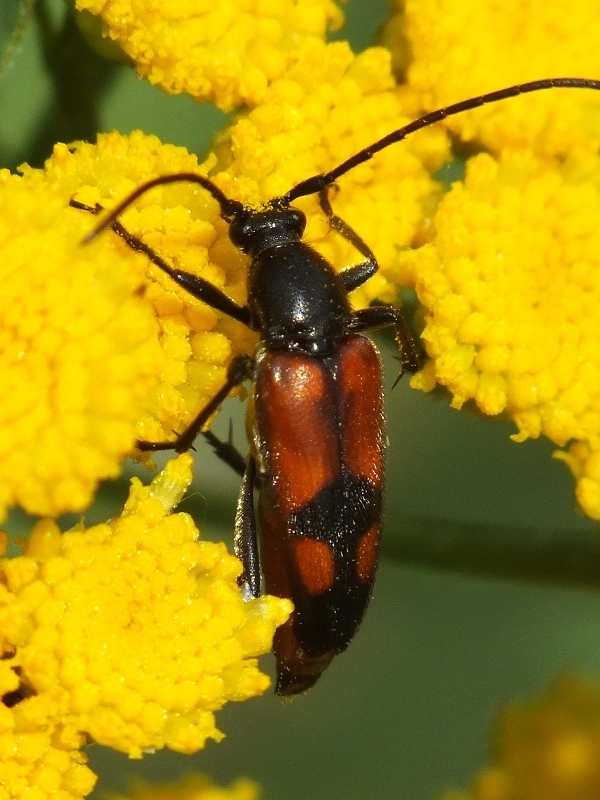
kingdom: Animalia
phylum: Arthropoda
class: Insecta
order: Coleoptera
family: Cerambycidae
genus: Stenurella
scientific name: Stenurella bifasciata
